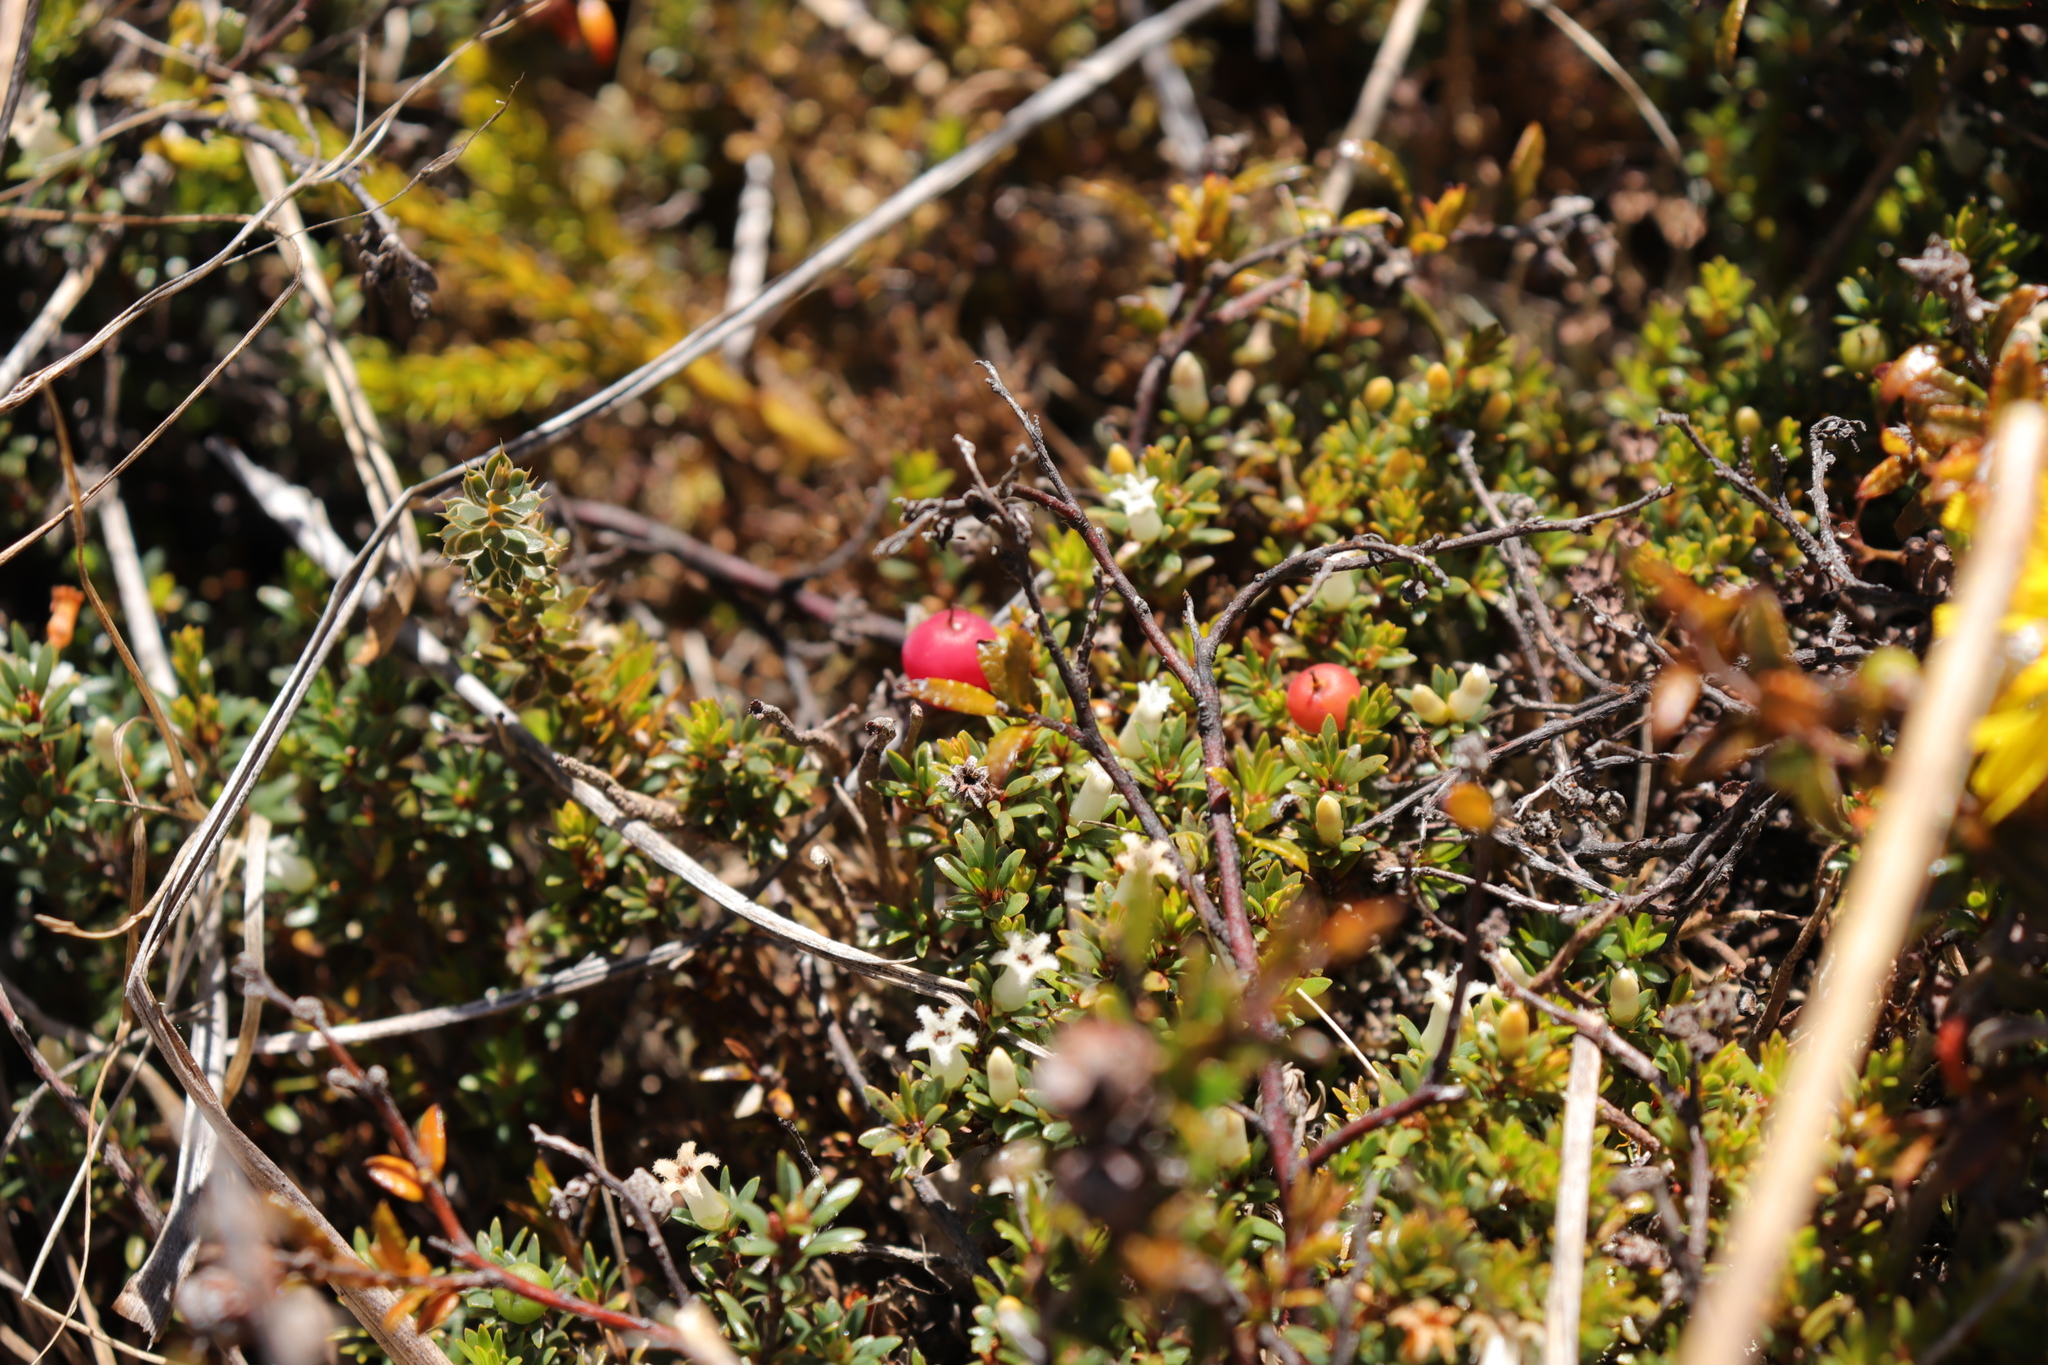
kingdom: Plantae
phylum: Tracheophyta
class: Magnoliopsida
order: Ericales
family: Ericaceae
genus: Pentachondra
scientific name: Pentachondra pumila
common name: Carpet-heath
